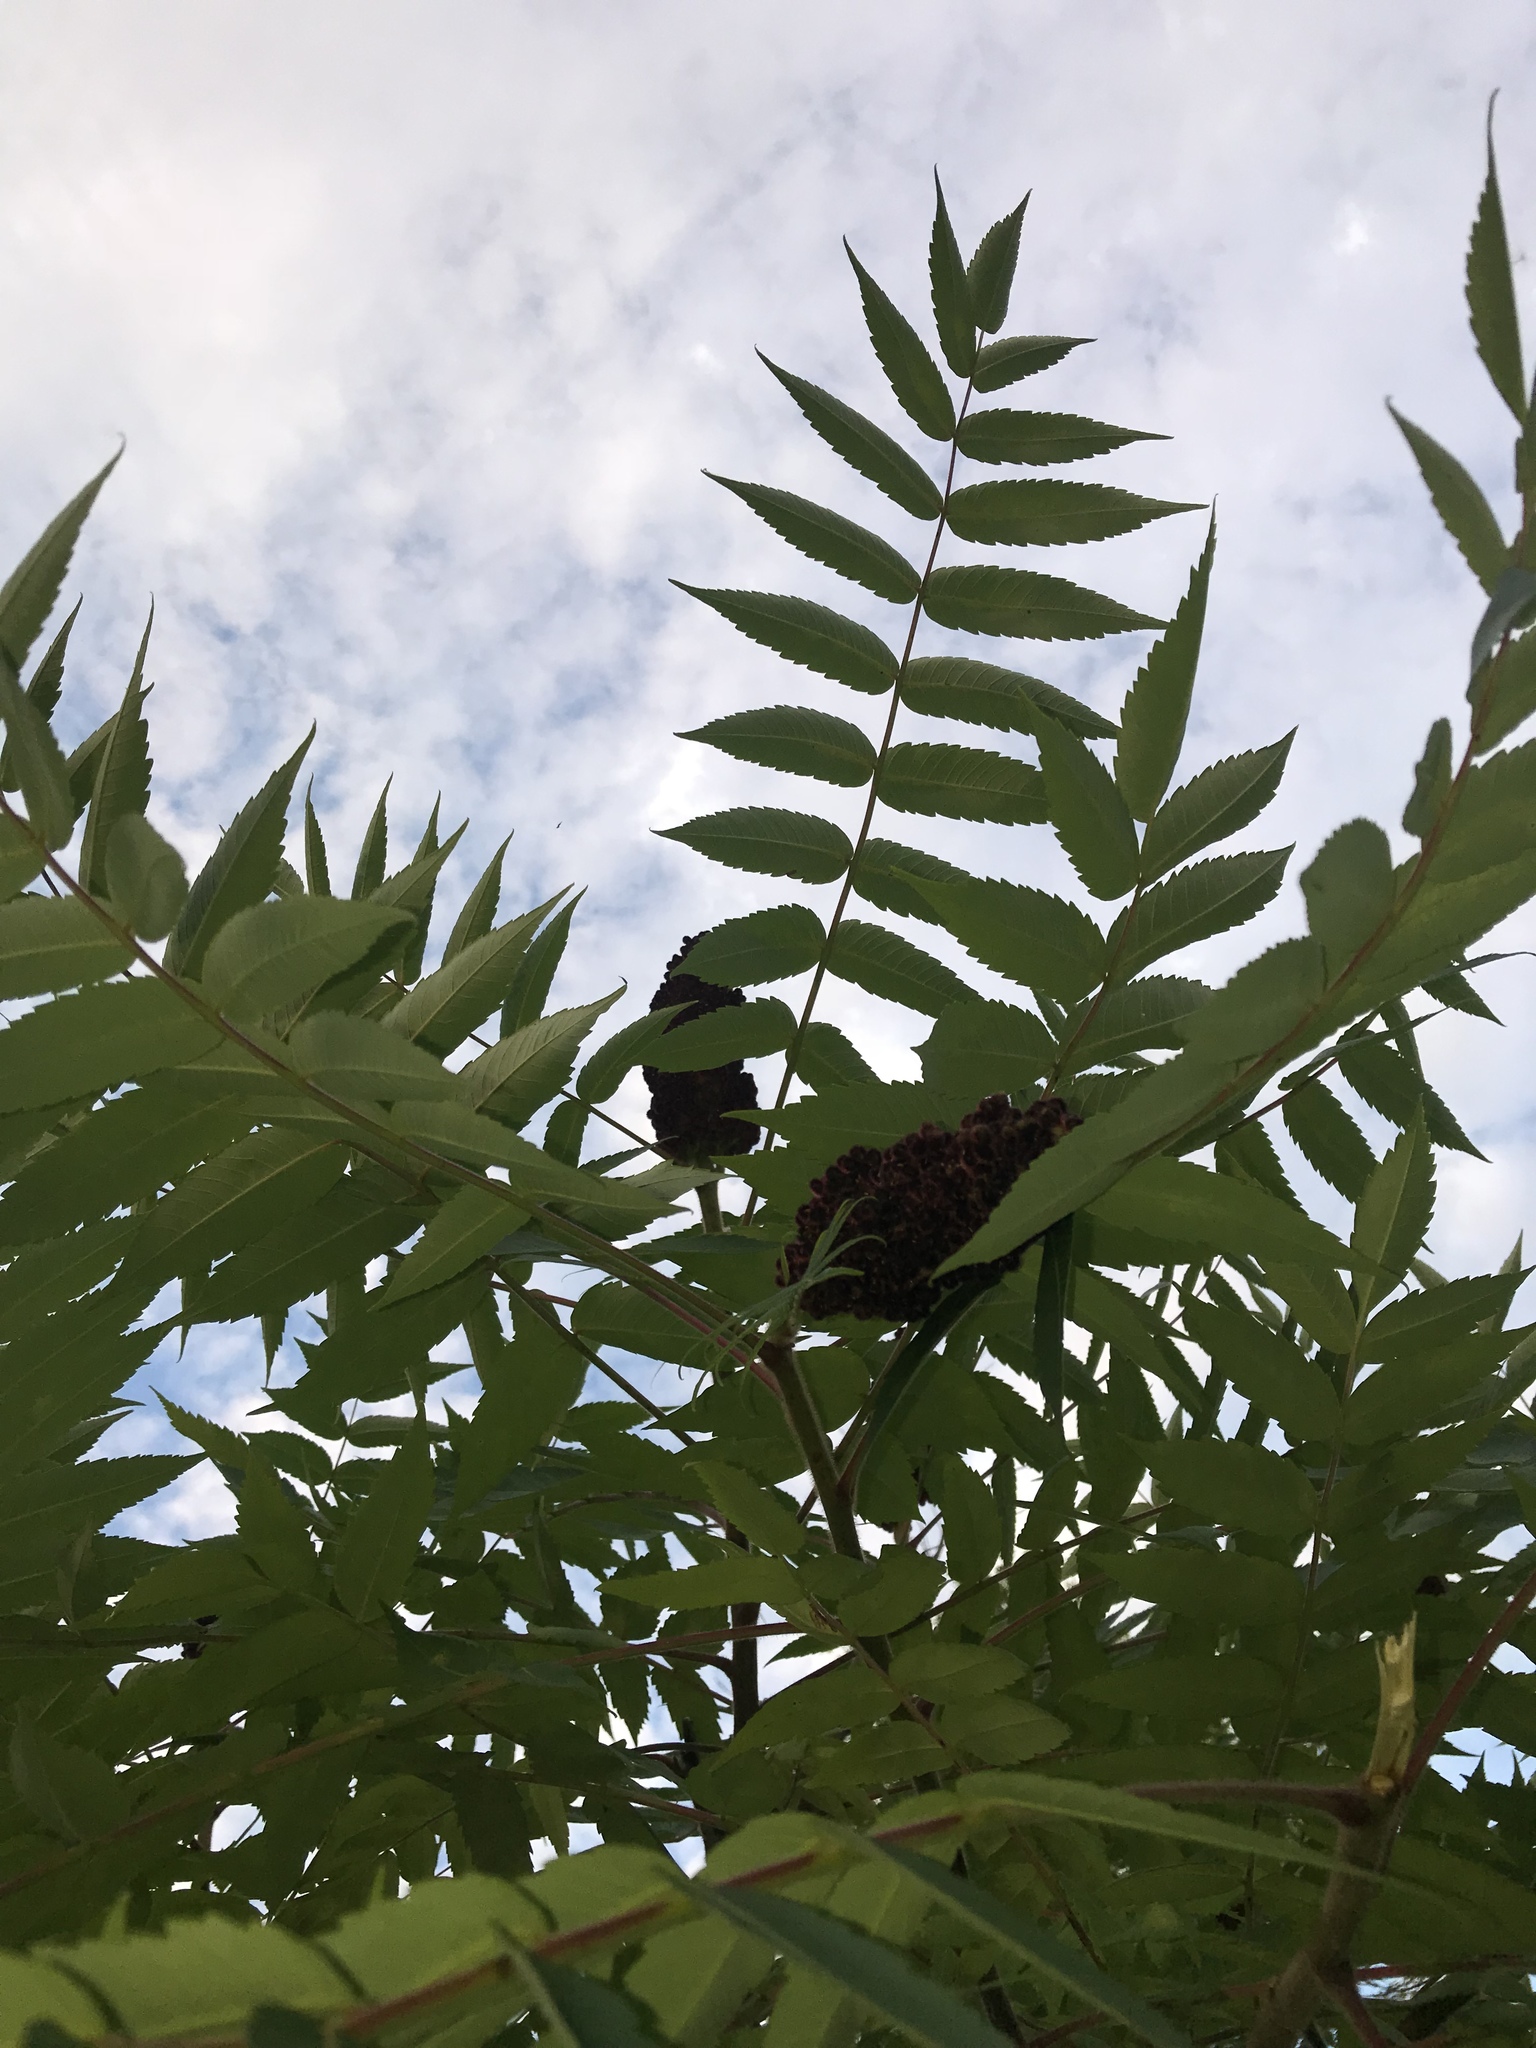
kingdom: Plantae
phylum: Tracheophyta
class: Magnoliopsida
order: Sapindales
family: Anacardiaceae
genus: Rhus
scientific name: Rhus typhina
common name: Staghorn sumac
